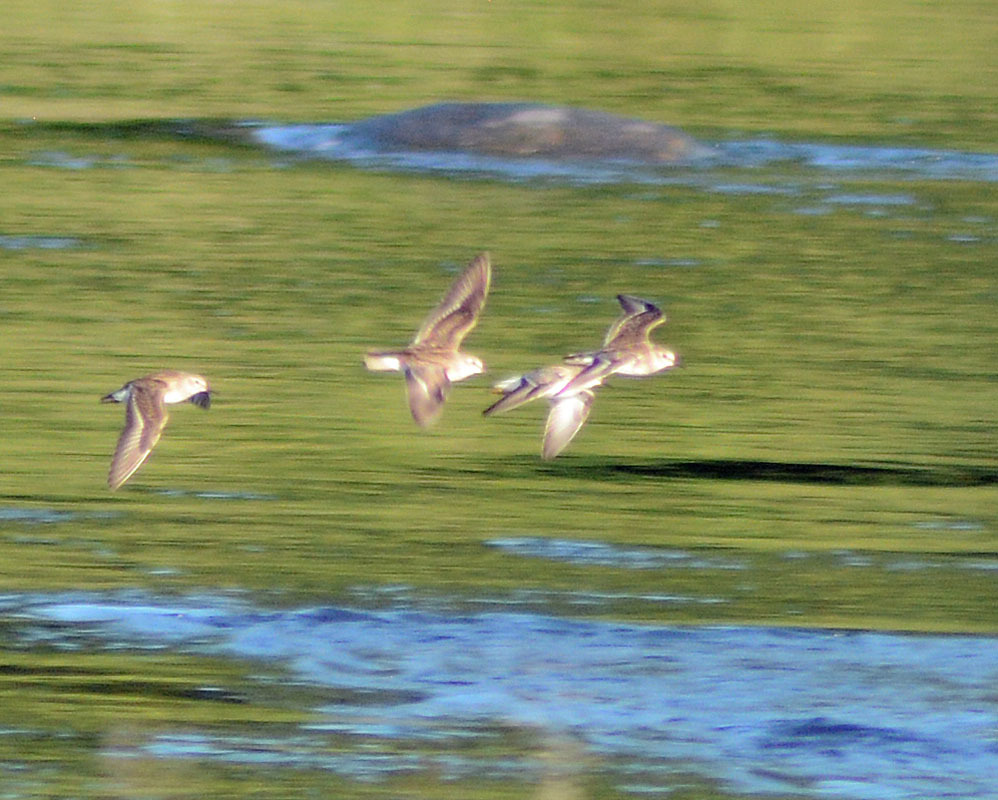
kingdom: Animalia
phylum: Chordata
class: Aves
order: Charadriiformes
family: Scolopacidae
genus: Calidris
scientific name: Calidris minutilla
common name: Least sandpiper
